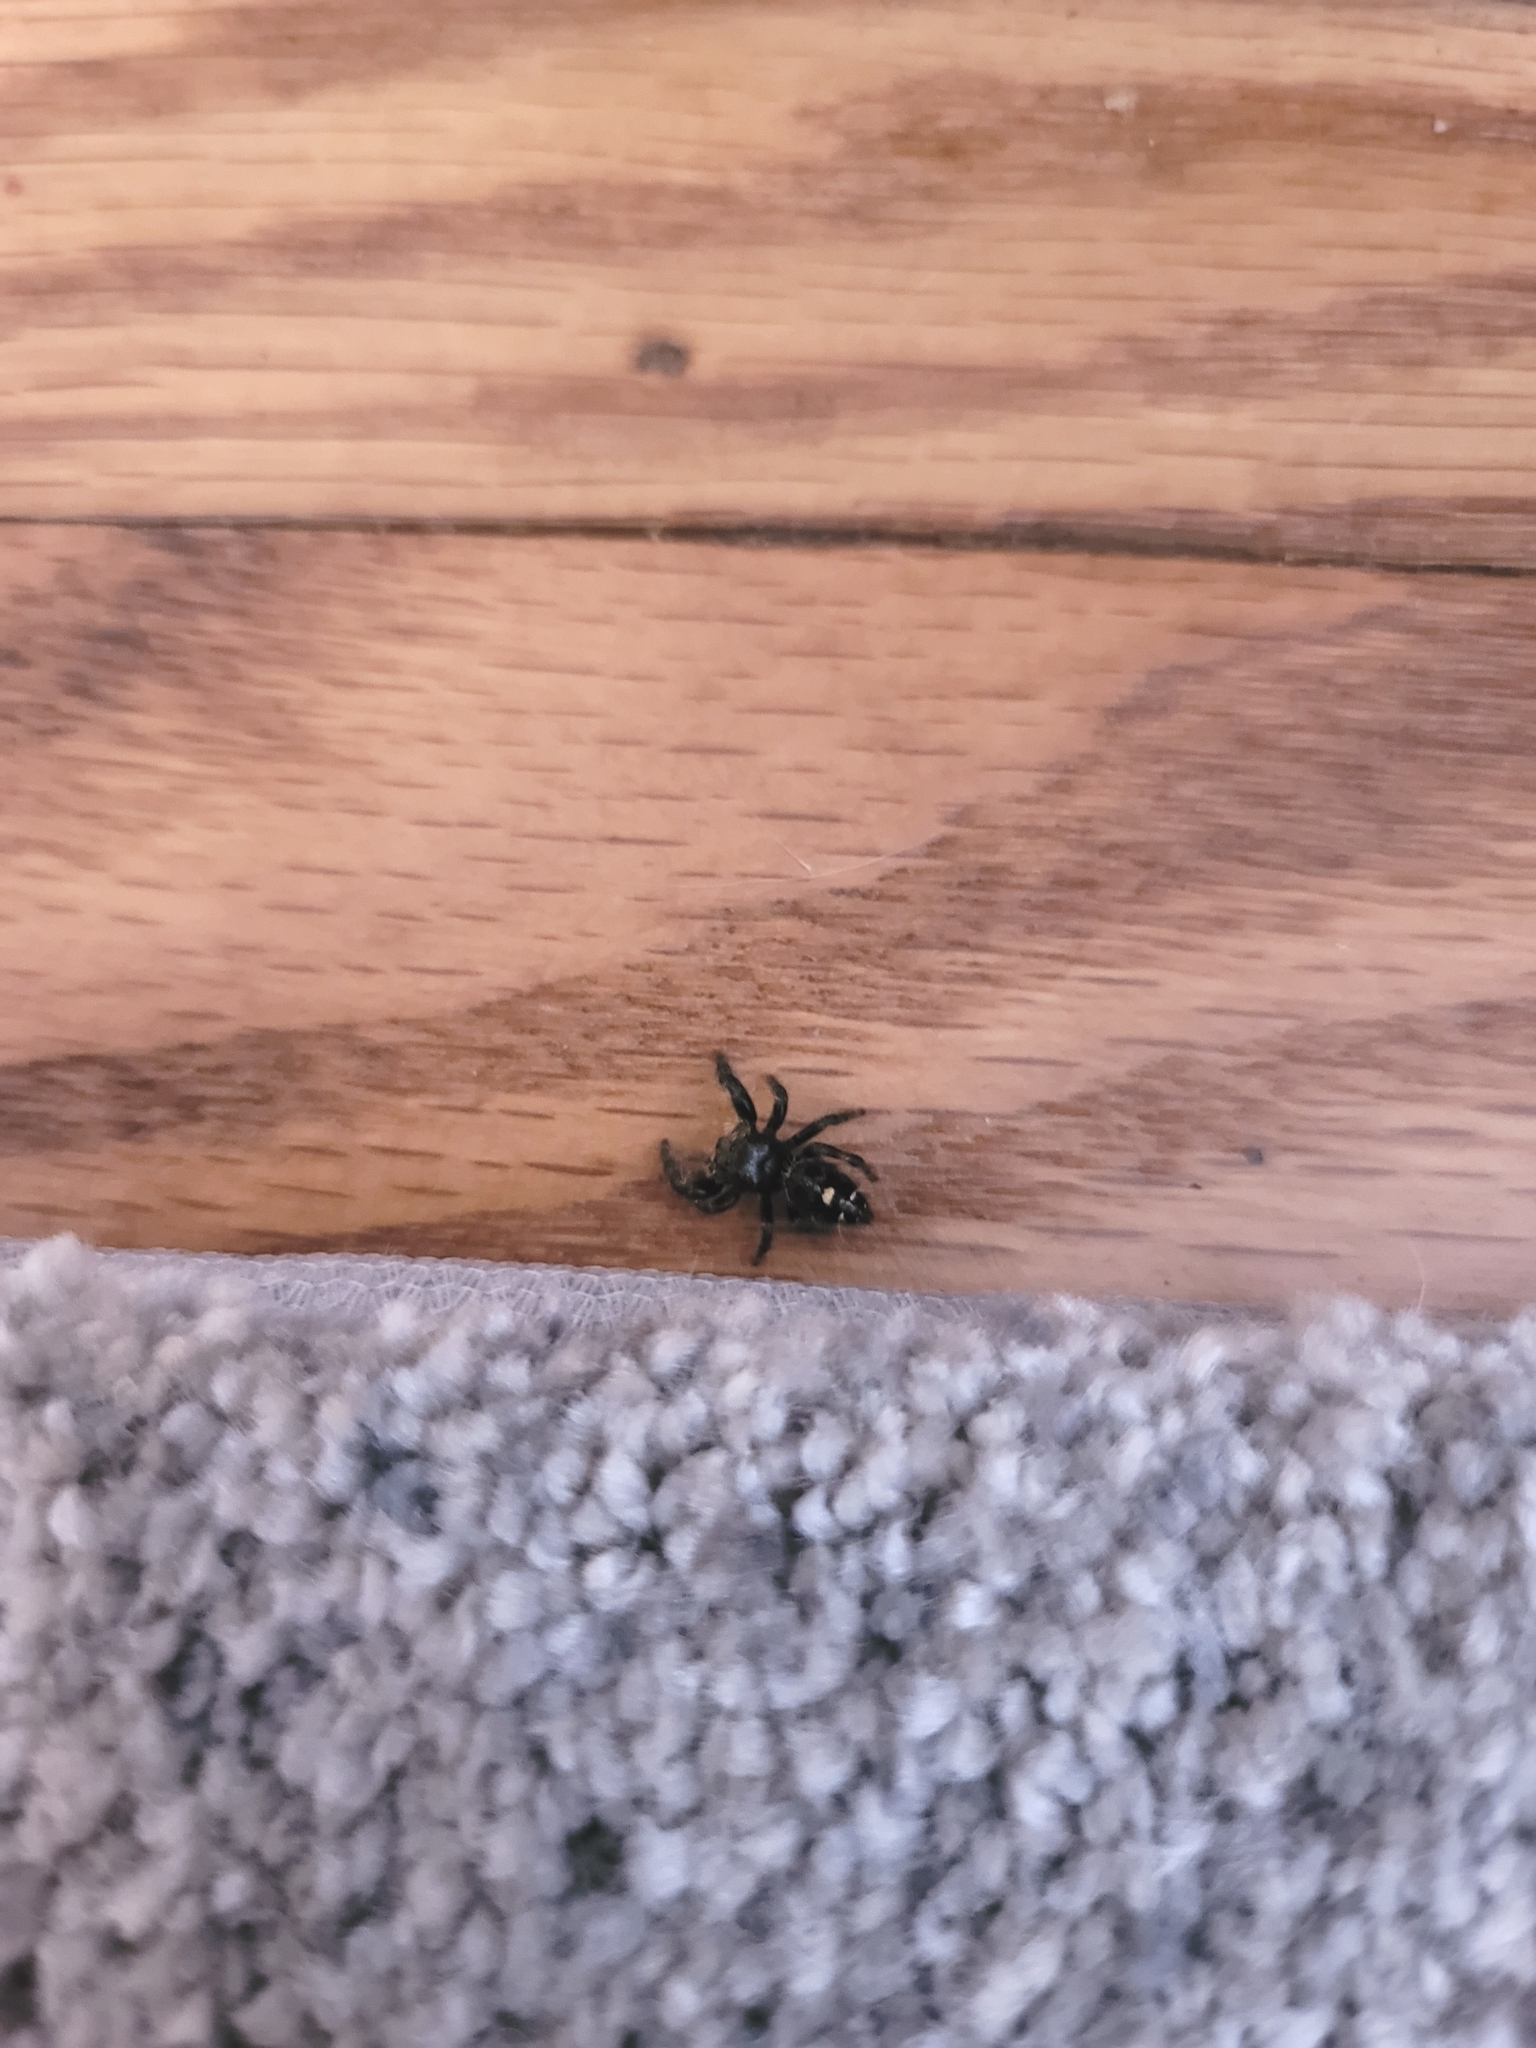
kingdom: Animalia
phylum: Arthropoda
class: Arachnida
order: Araneae
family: Salticidae
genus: Phidippus
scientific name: Phidippus audax
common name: Bold jumper
